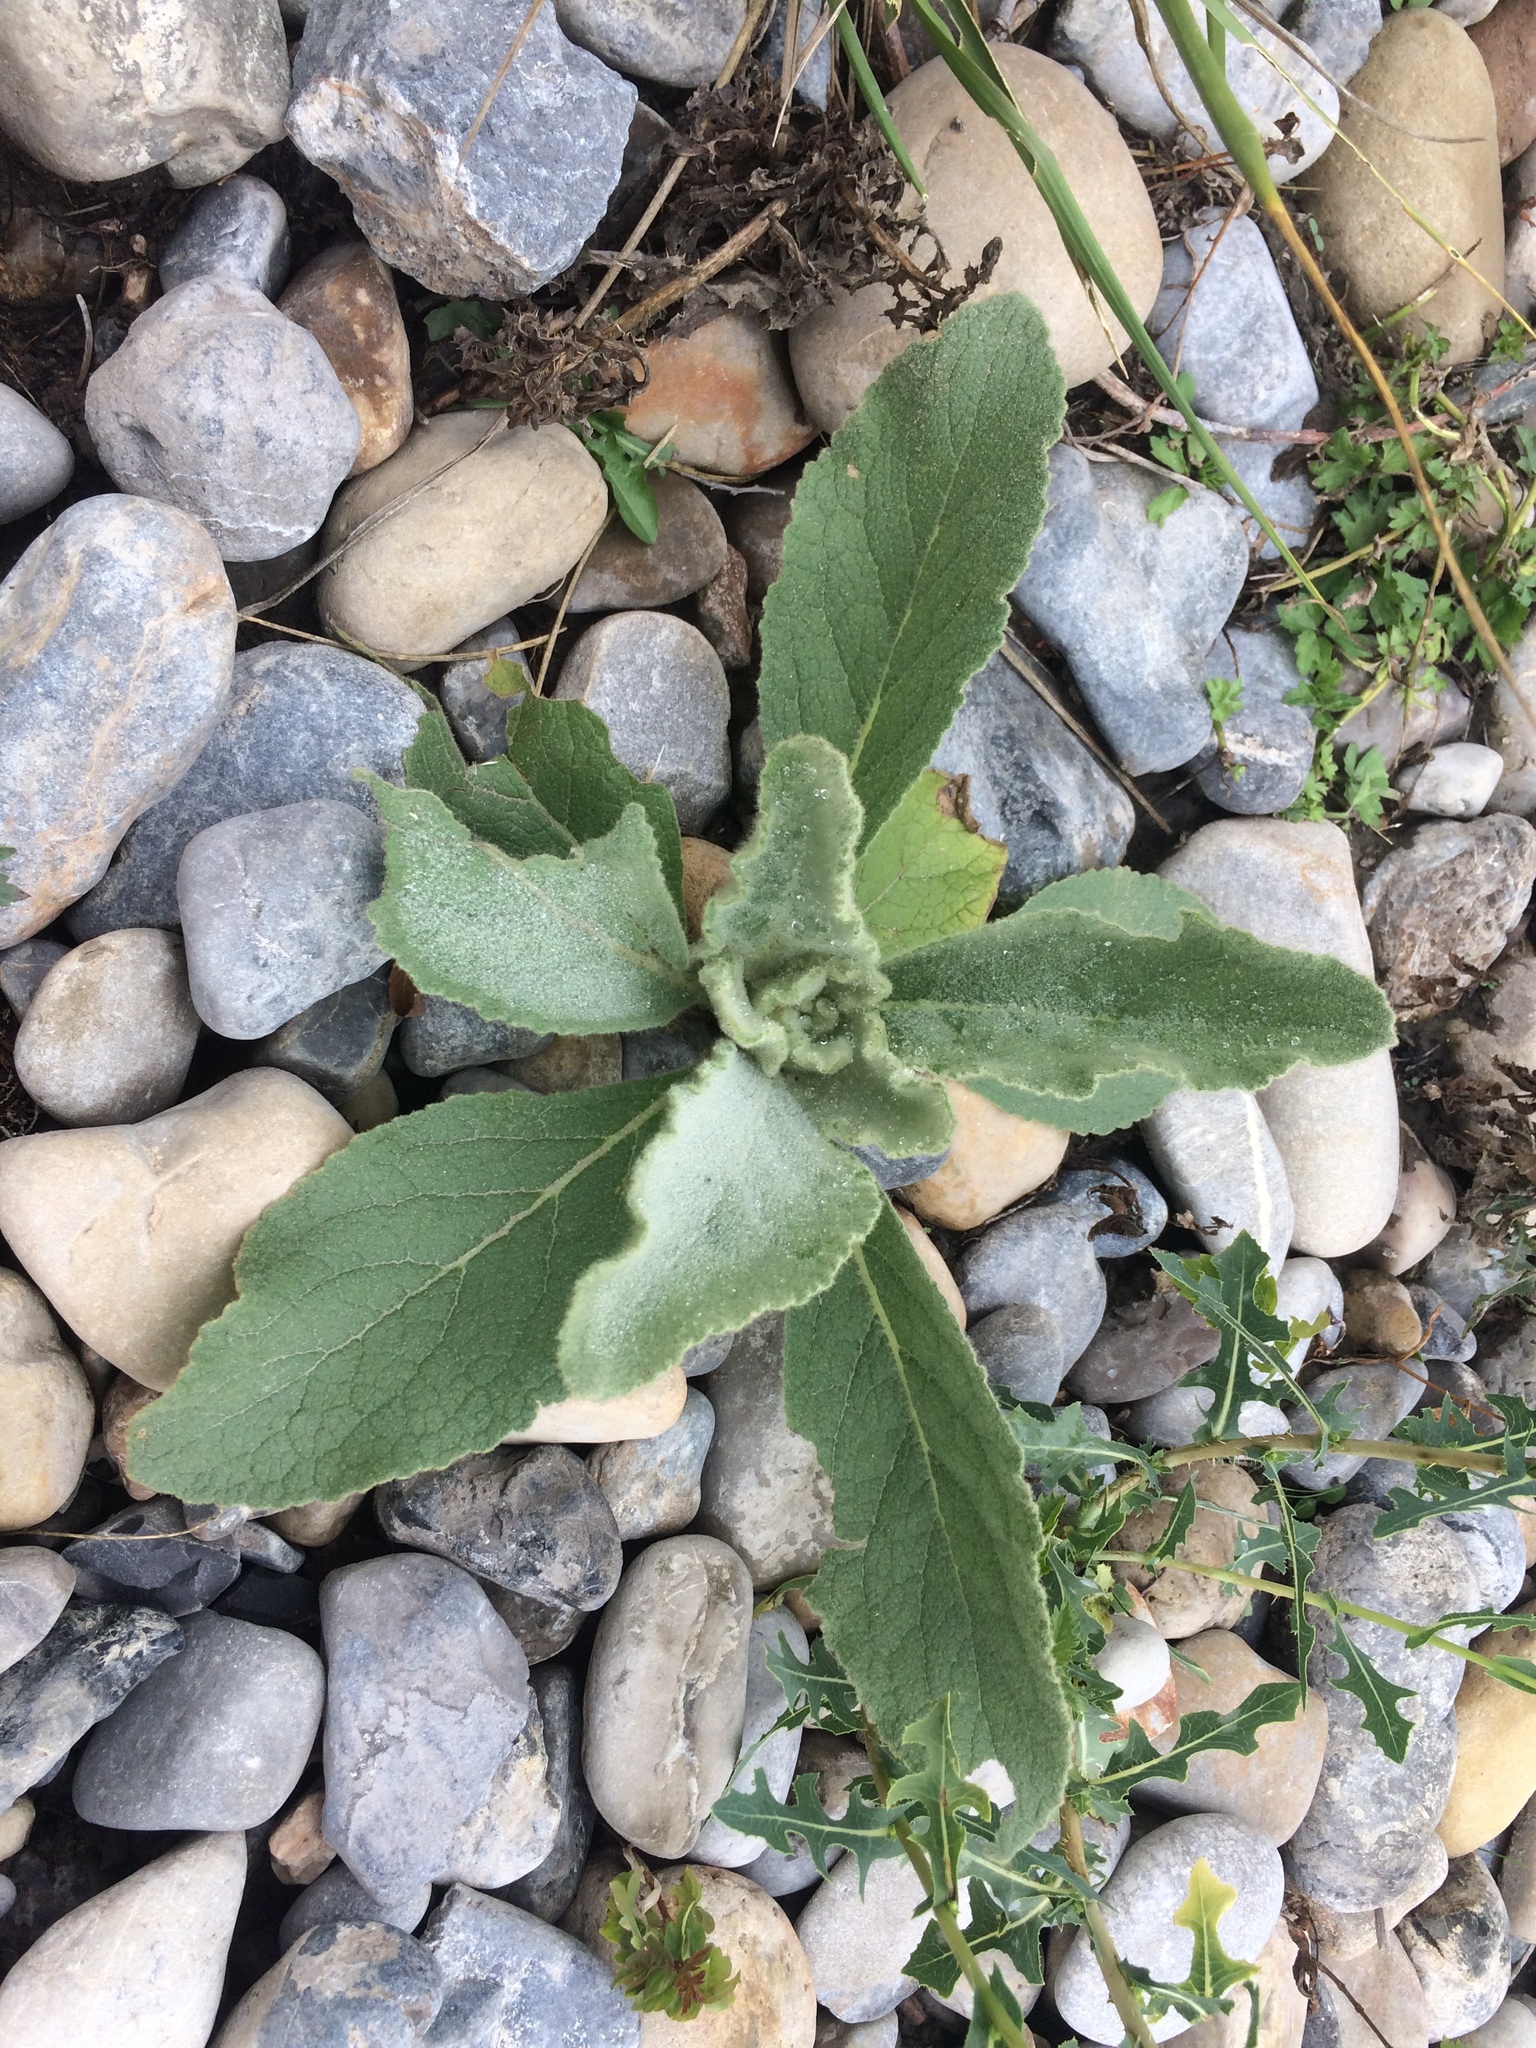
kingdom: Plantae
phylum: Tracheophyta
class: Magnoliopsida
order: Lamiales
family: Scrophulariaceae
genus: Verbascum
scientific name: Verbascum thapsus
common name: Common mullein
